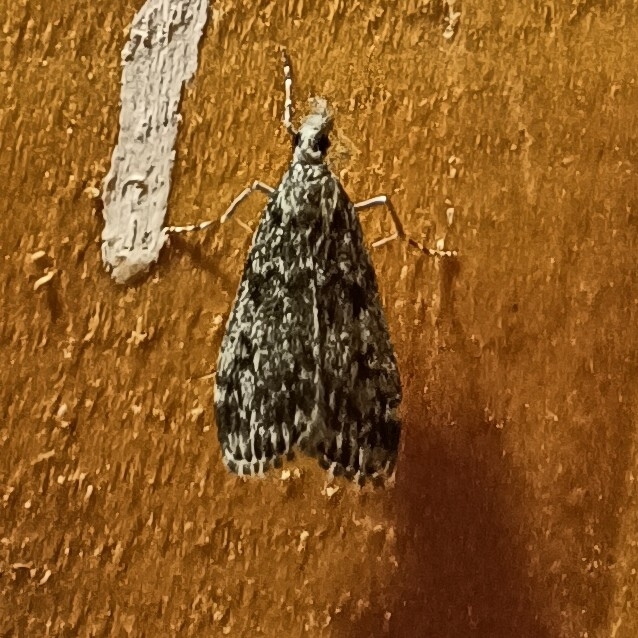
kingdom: Animalia
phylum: Arthropoda
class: Insecta
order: Lepidoptera
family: Crambidae
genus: Eudonia
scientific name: Eudonia truncicolella
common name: Ground-moss grey
